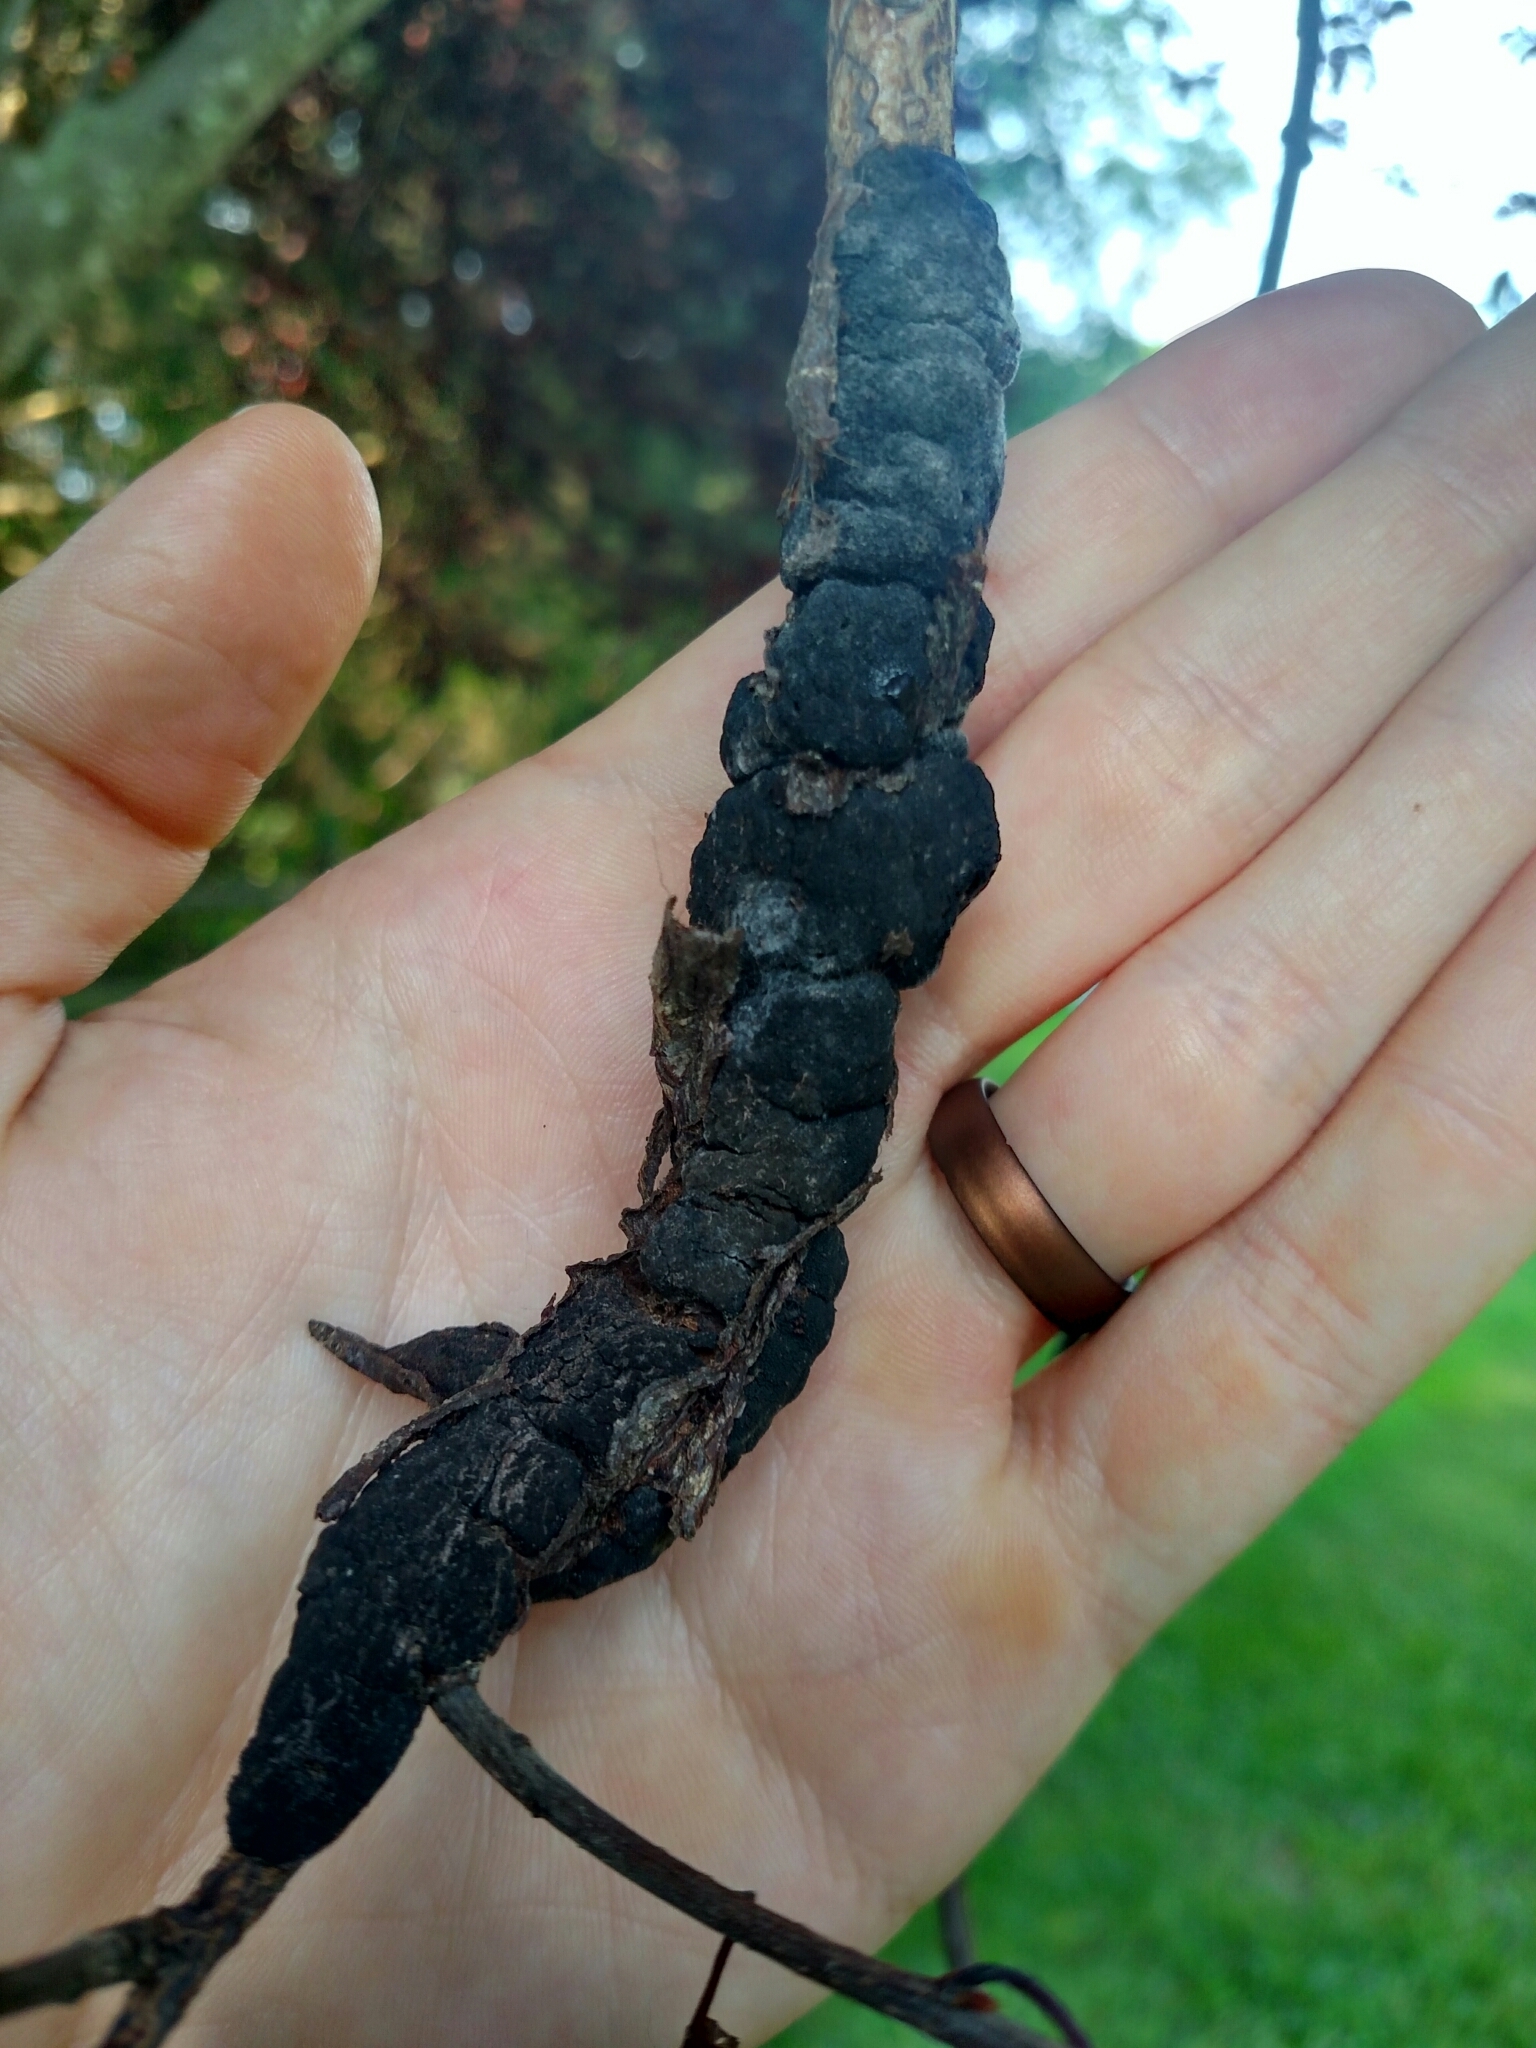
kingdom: Fungi
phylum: Ascomycota
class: Dothideomycetes
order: Venturiales
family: Venturiaceae
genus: Apiosporina
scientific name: Apiosporina morbosa
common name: Black knot
